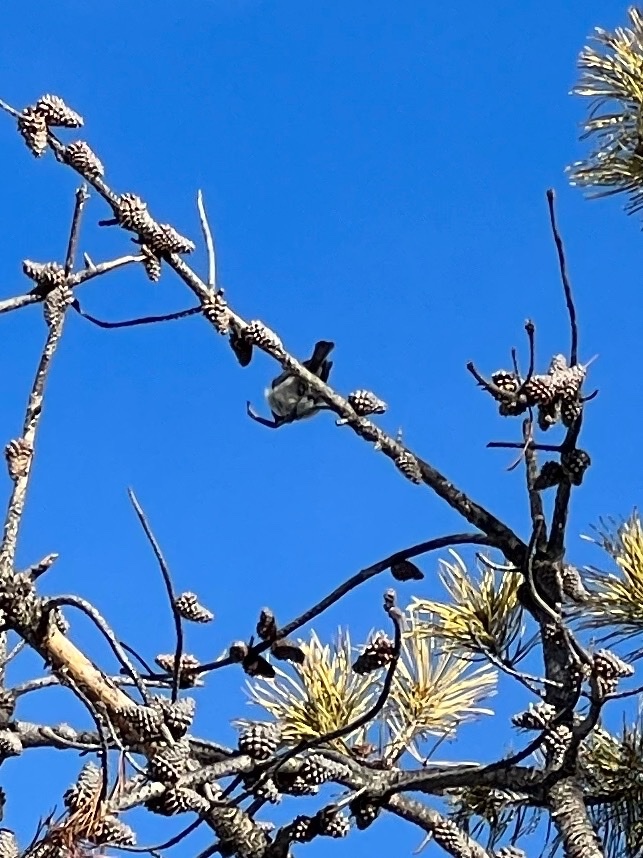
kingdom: Animalia
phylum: Chordata
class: Aves
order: Passeriformes
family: Paridae
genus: Poecile
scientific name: Poecile gambeli
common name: Mountain chickadee
